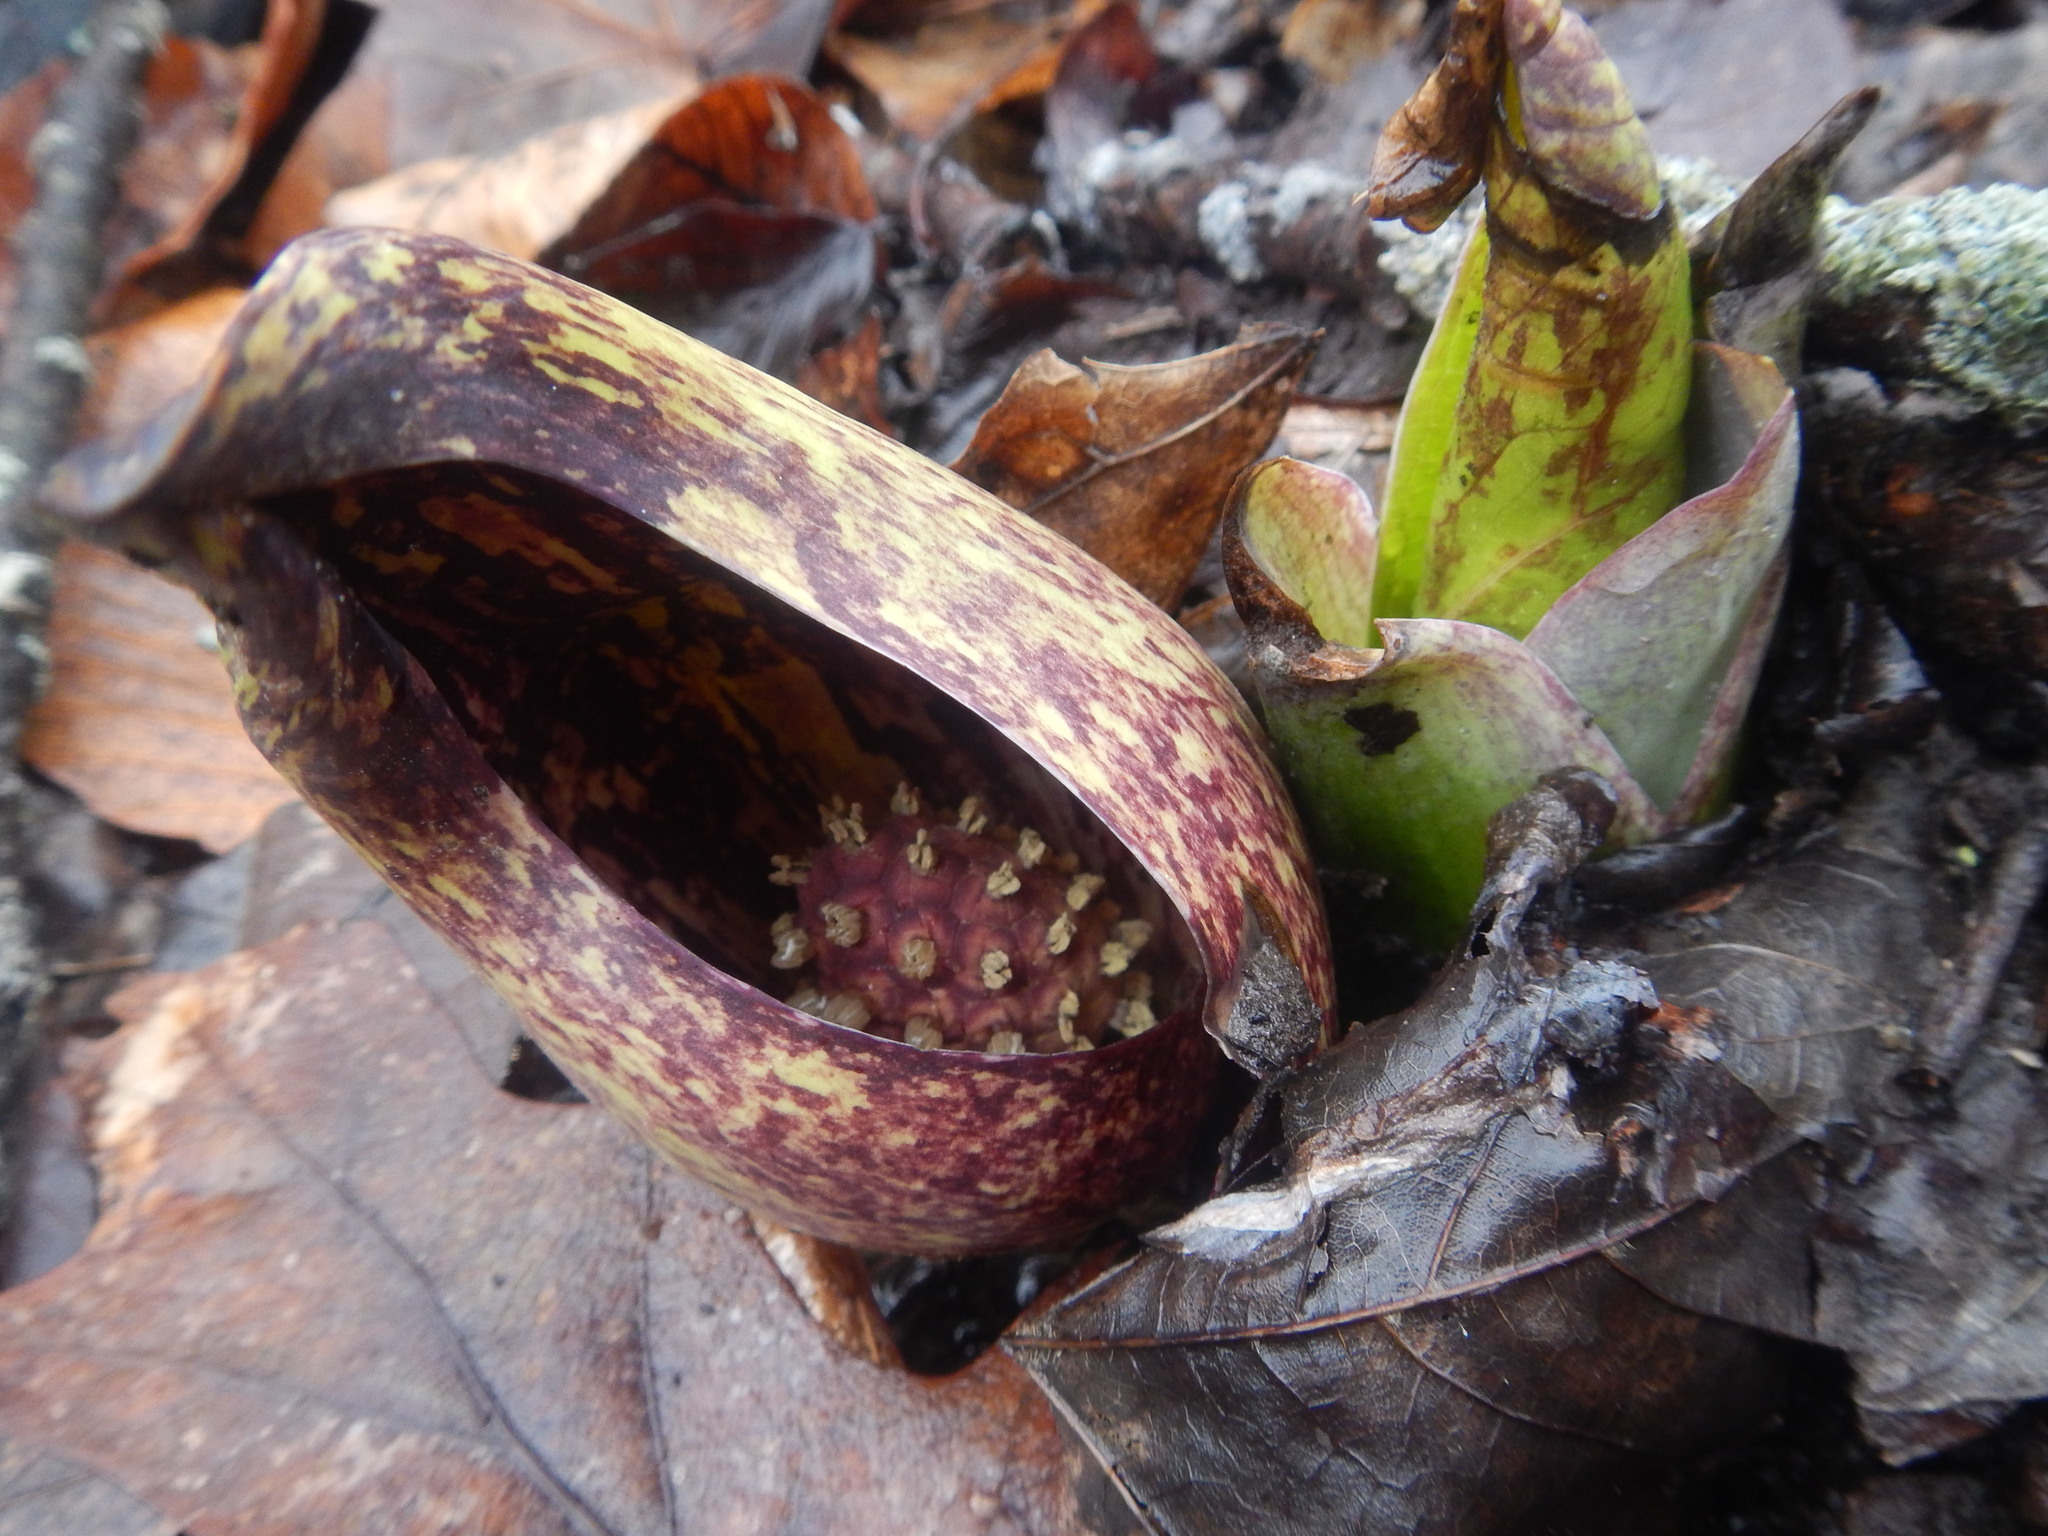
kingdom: Plantae
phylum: Tracheophyta
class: Liliopsida
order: Alismatales
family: Araceae
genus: Symplocarpus
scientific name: Symplocarpus foetidus
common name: Eastern skunk cabbage
